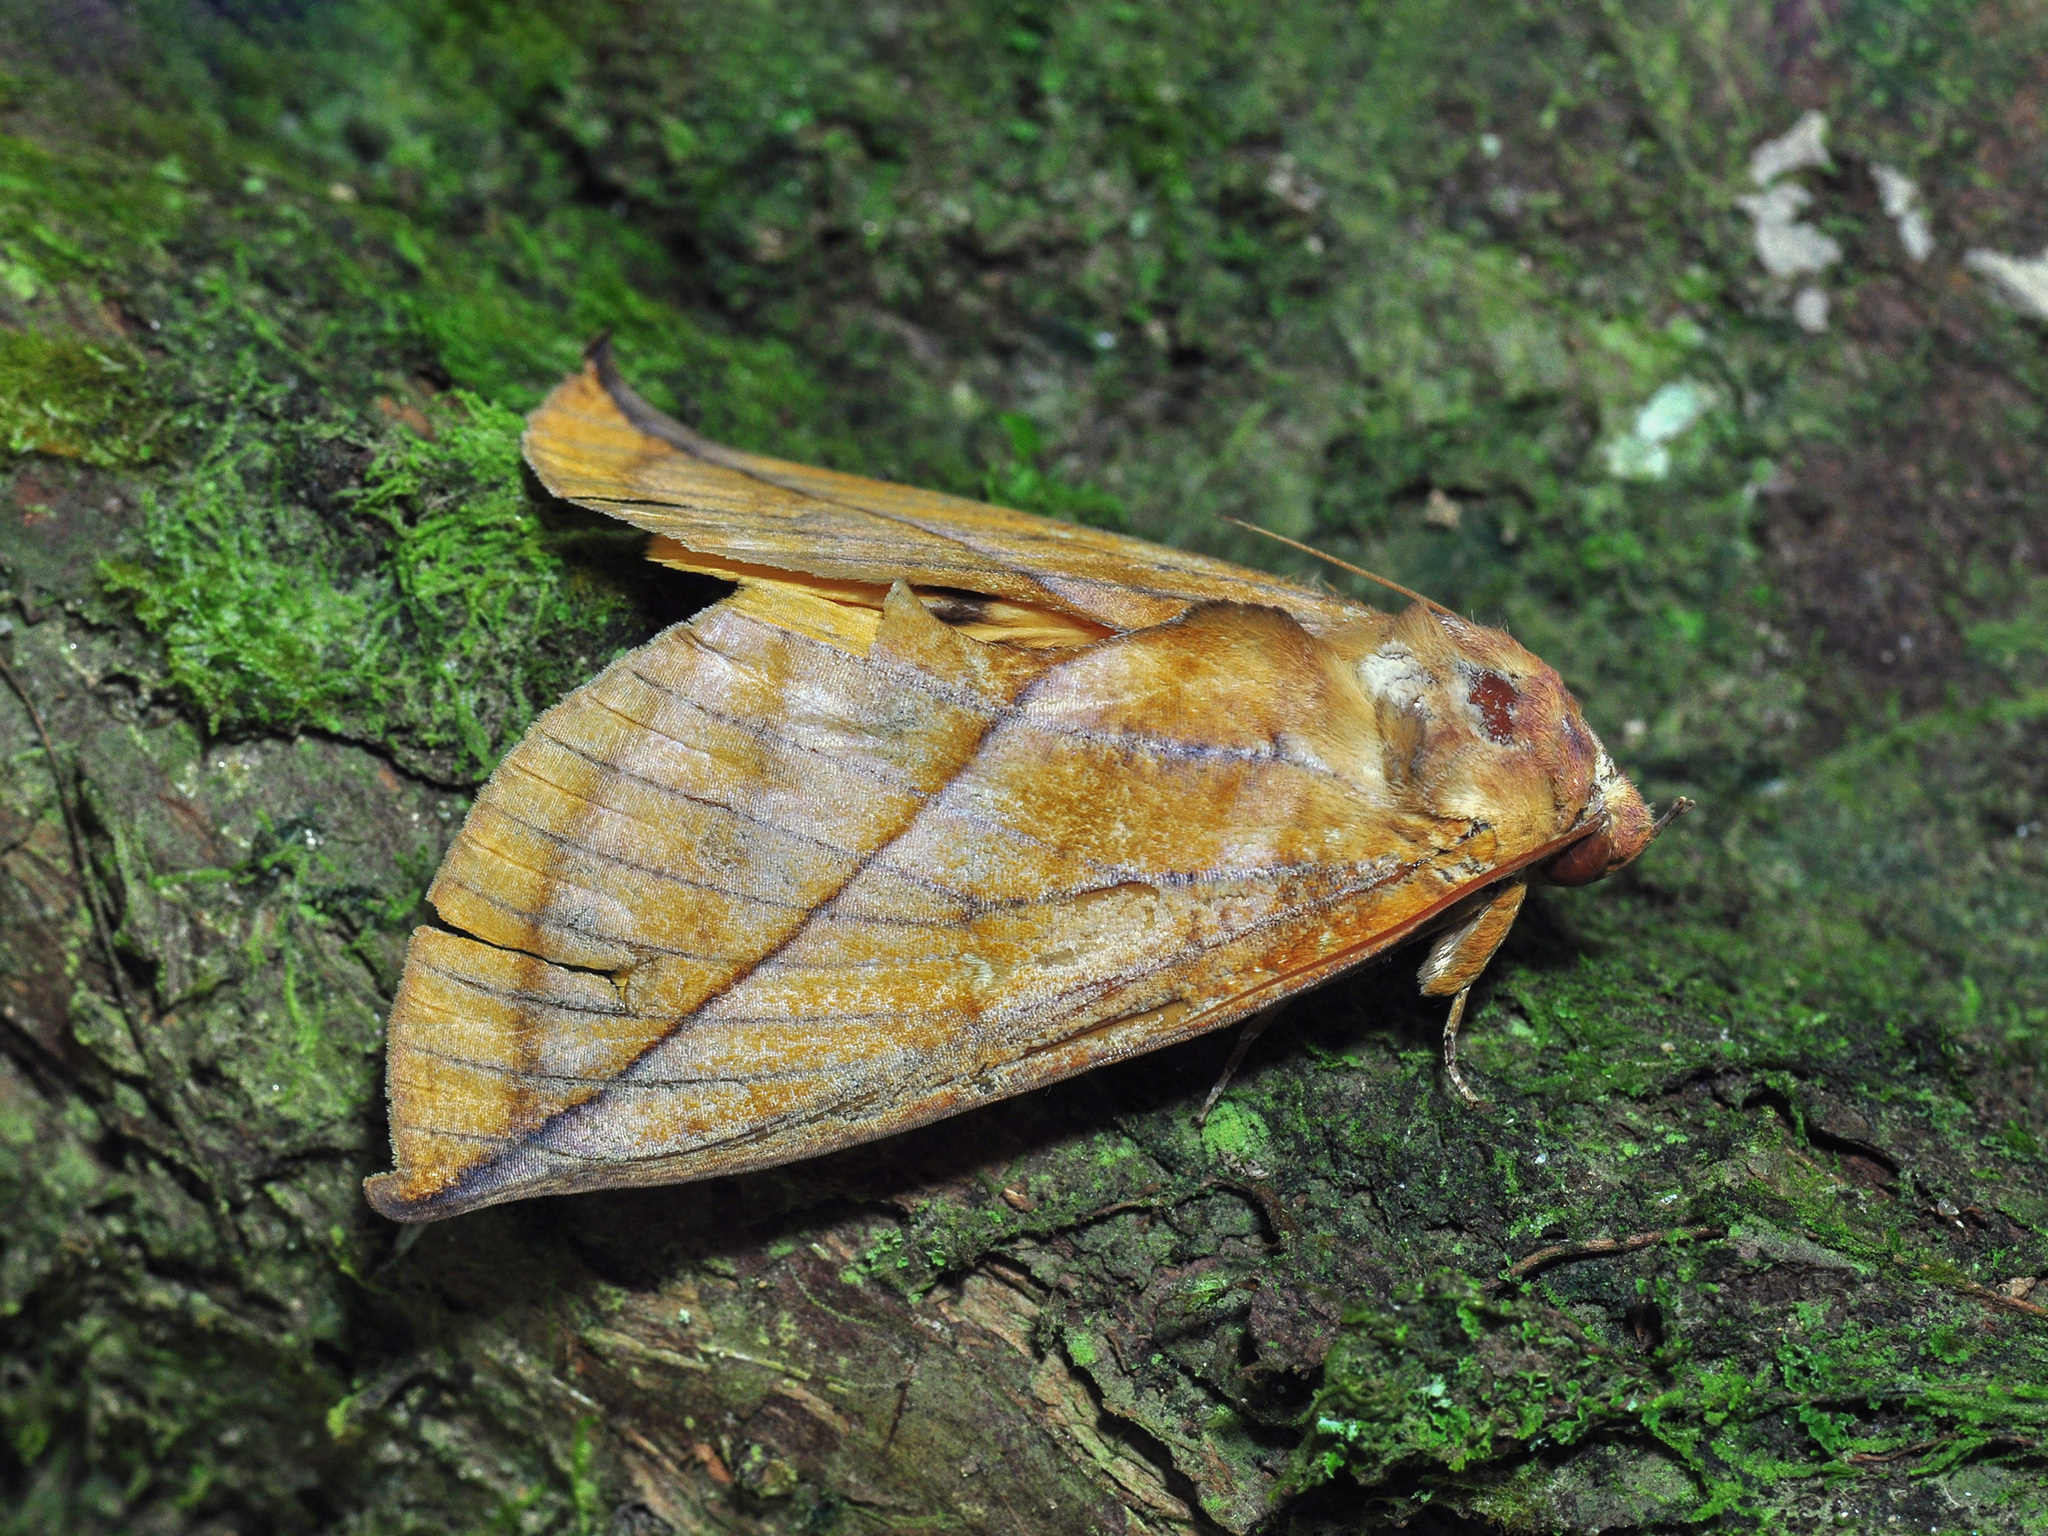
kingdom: Animalia
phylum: Arthropoda
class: Insecta
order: Lepidoptera
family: Erebidae
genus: Eudocima
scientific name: Eudocima aurantia
